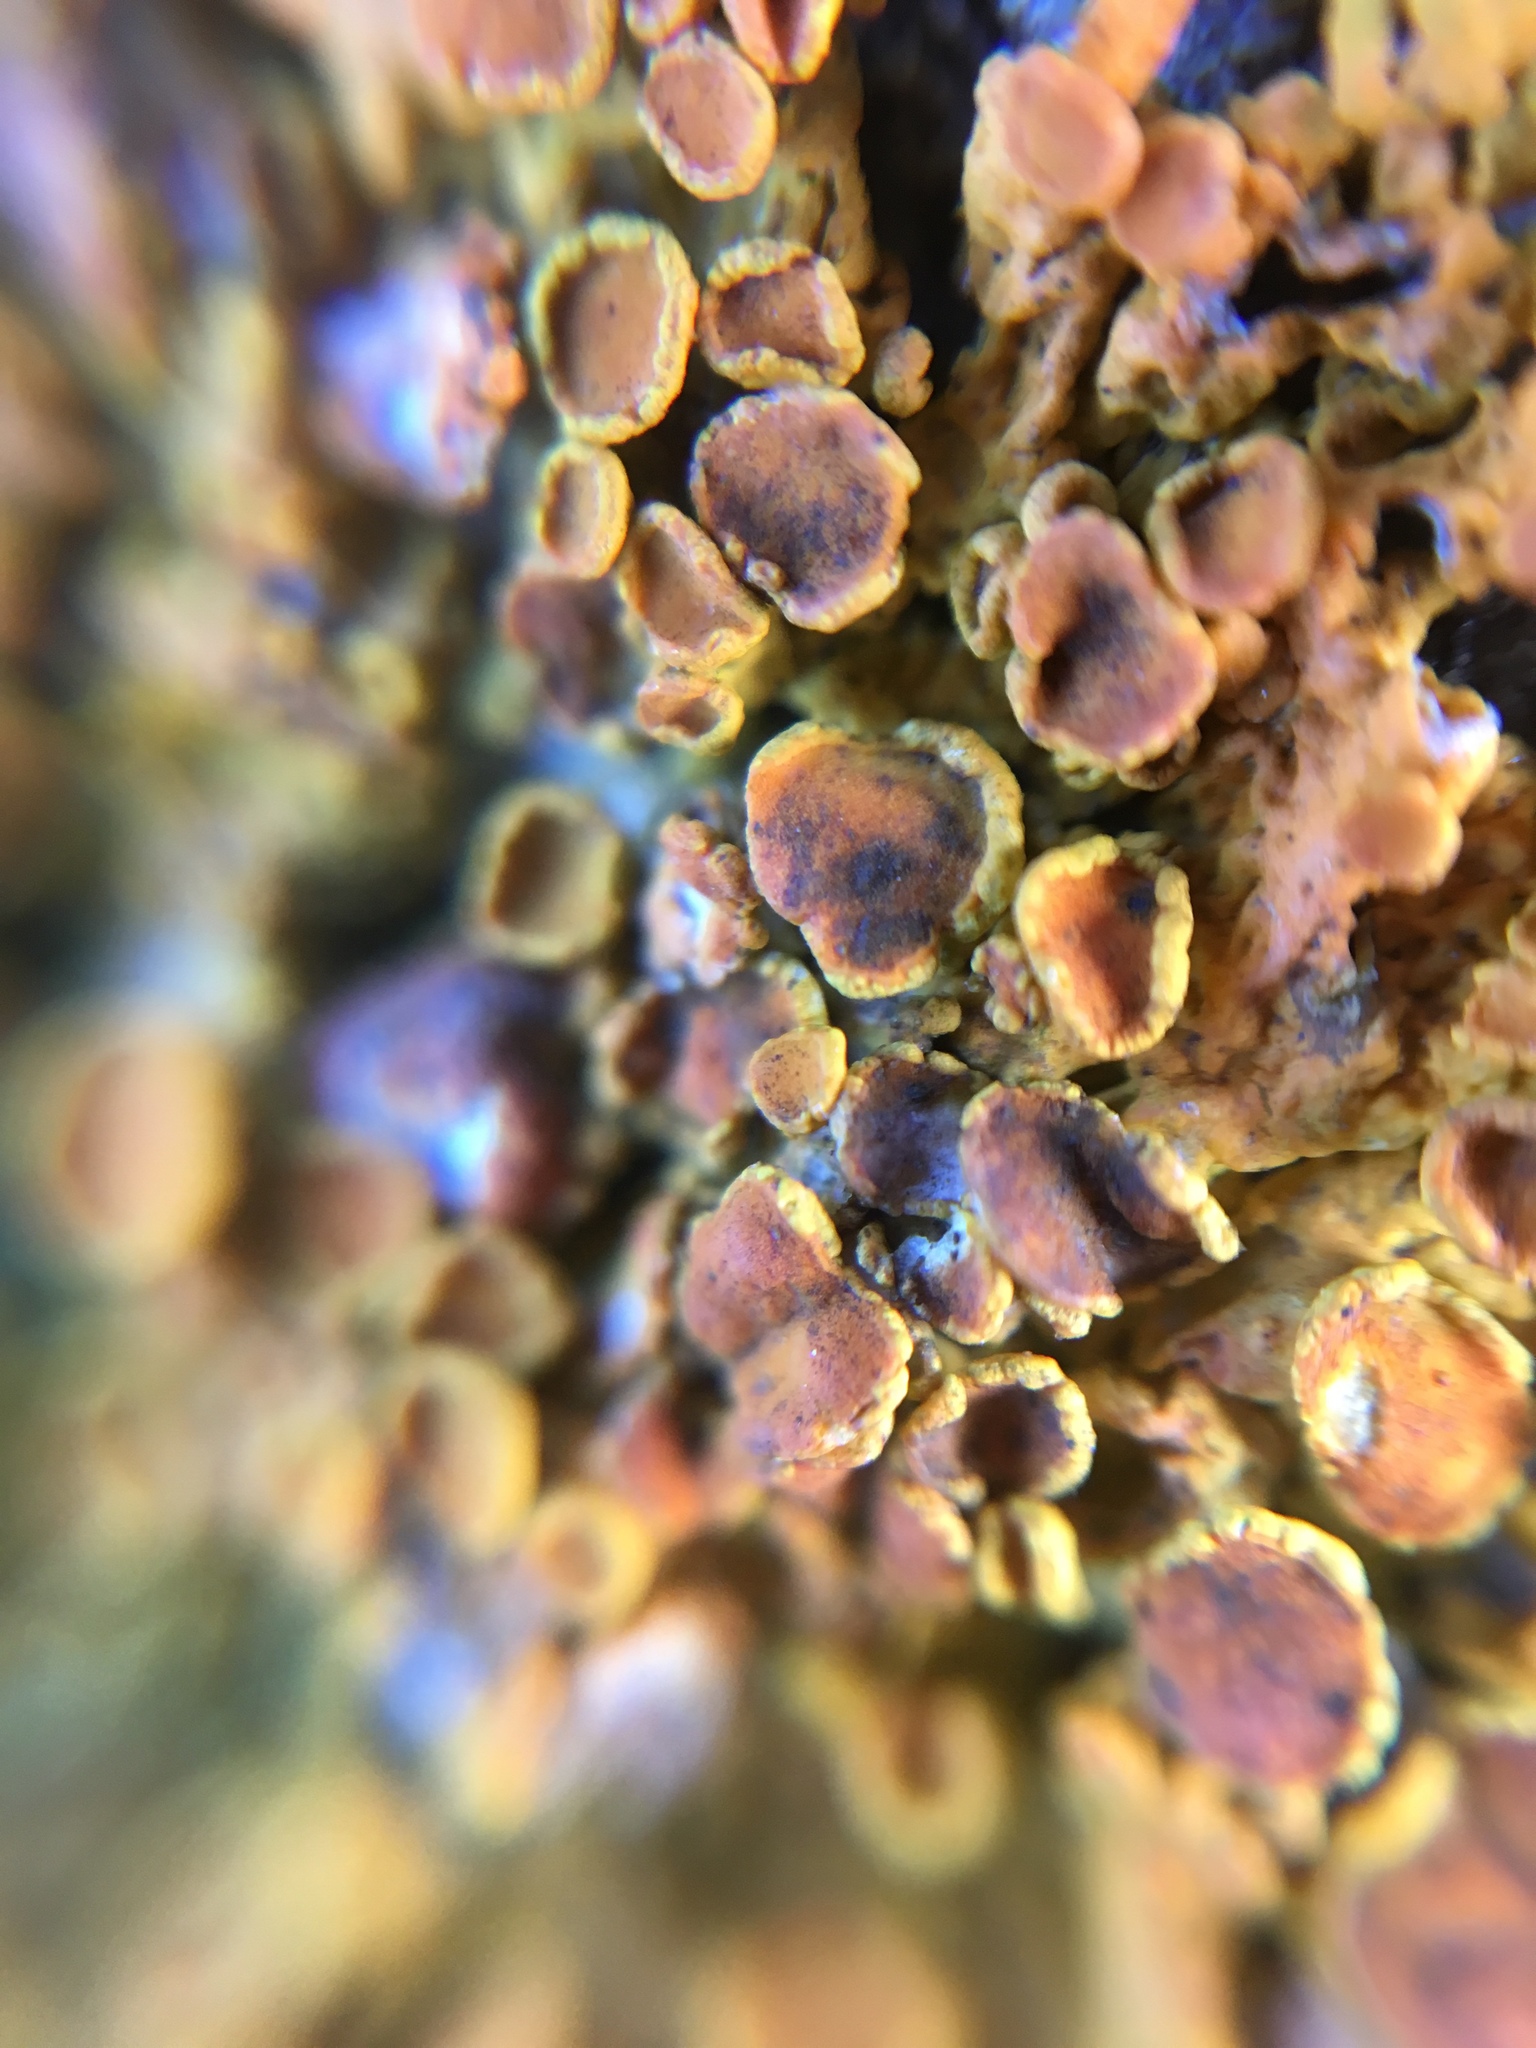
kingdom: Fungi
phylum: Ascomycota
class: Lecanoromycetes
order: Teloschistales
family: Teloschistaceae
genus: Xanthoria
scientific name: Xanthoria parietina
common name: Common orange lichen
